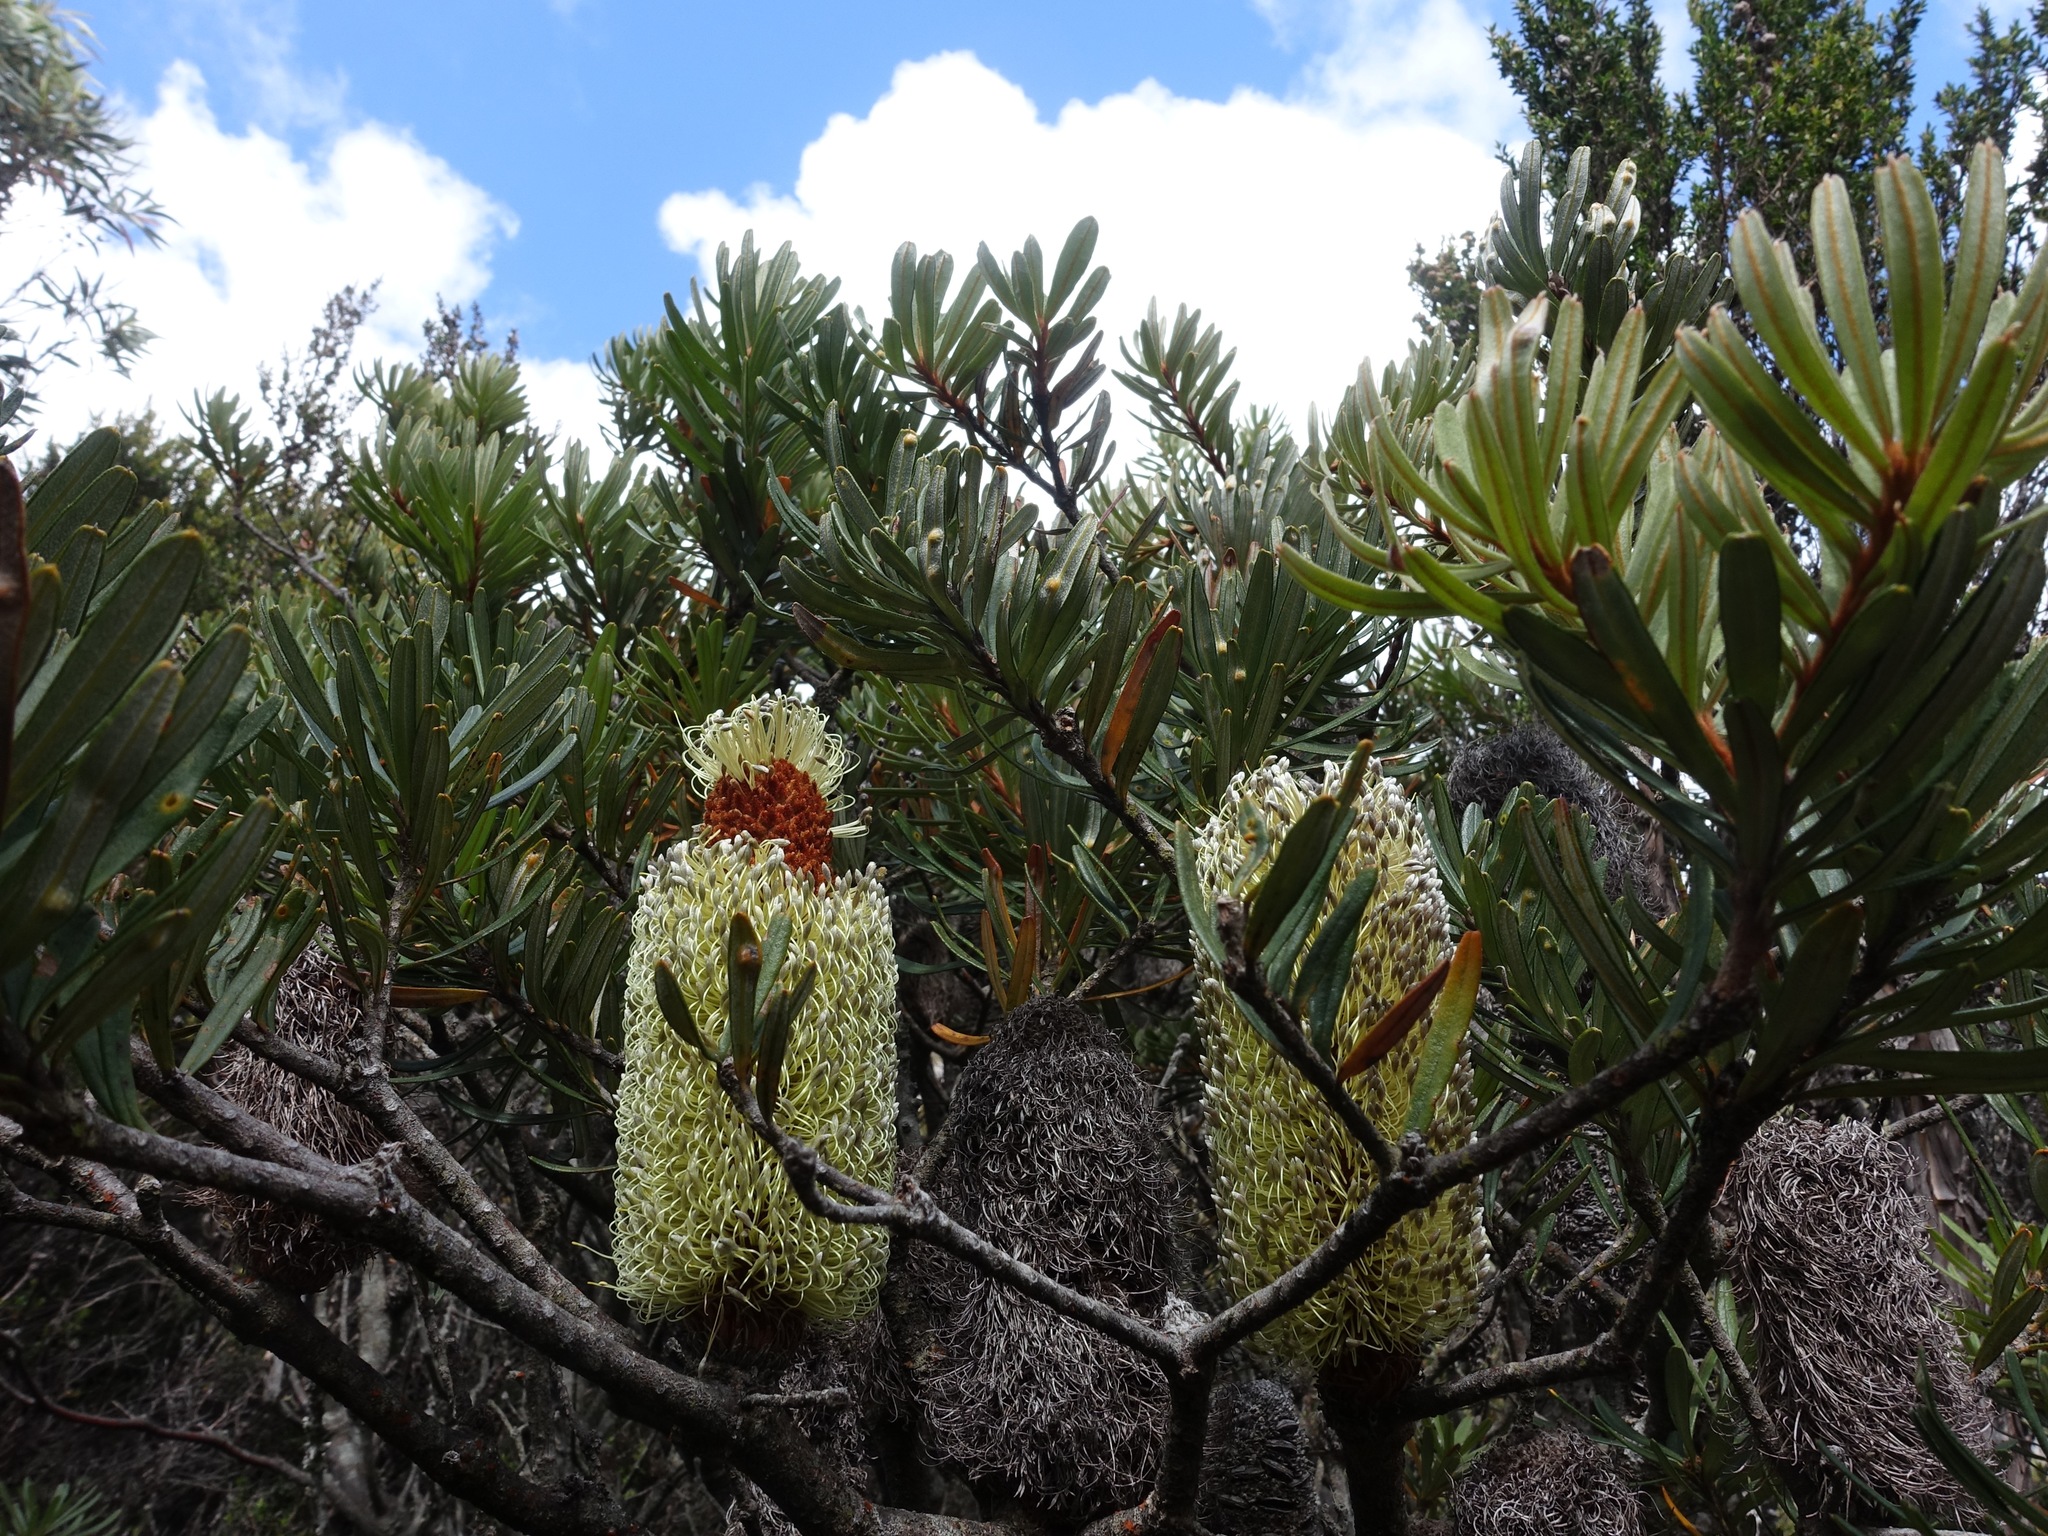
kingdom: Plantae
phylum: Tracheophyta
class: Magnoliopsida
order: Proteales
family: Proteaceae
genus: Banksia
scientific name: Banksia marginata
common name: Silver banksia
